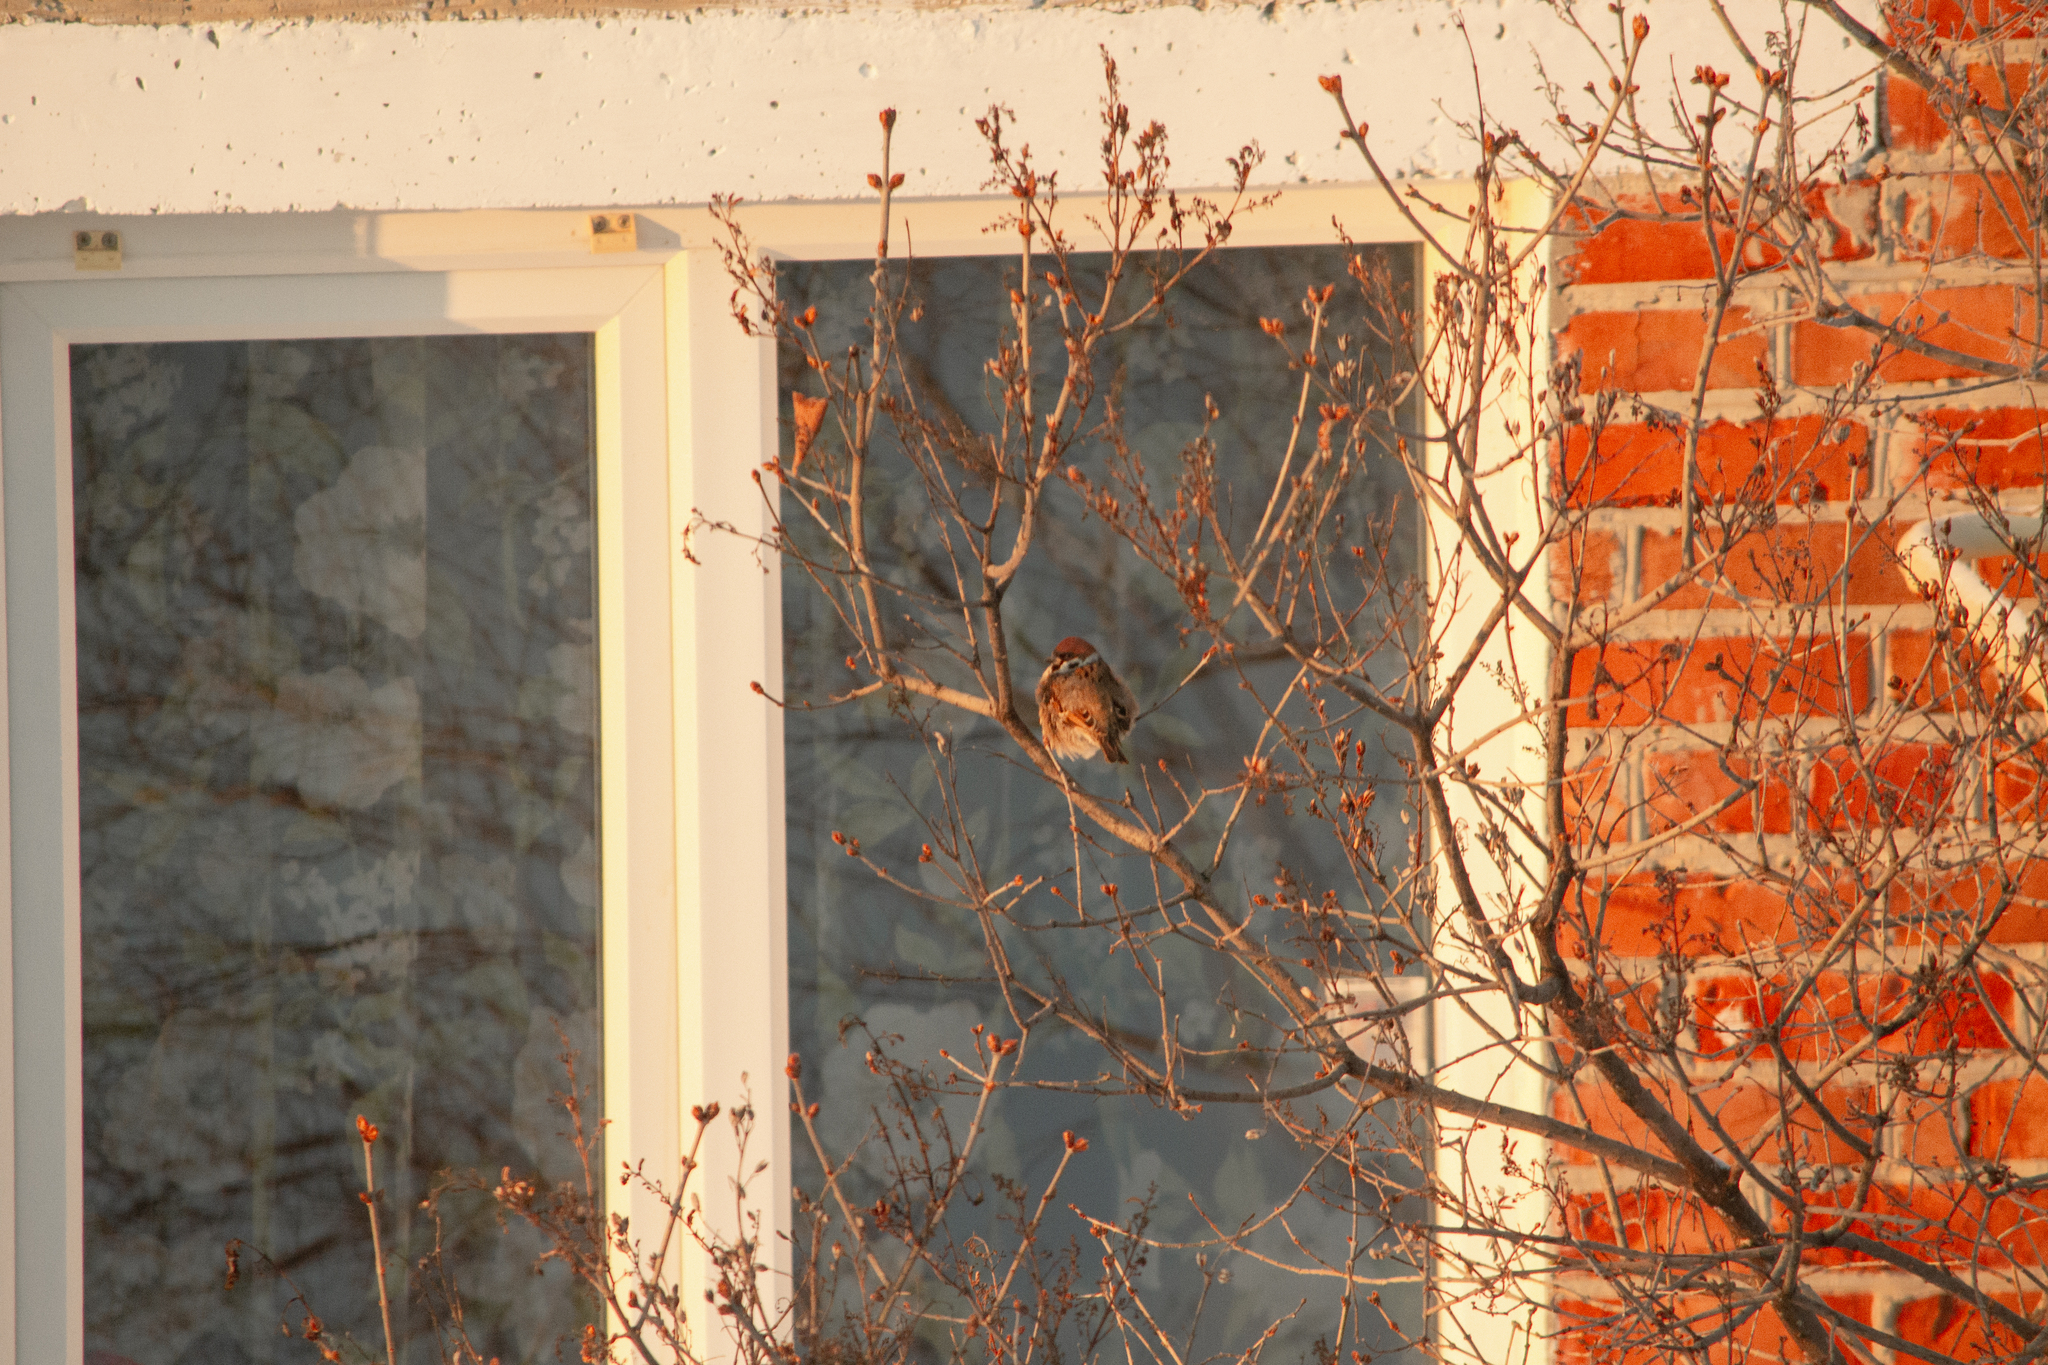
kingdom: Animalia
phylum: Chordata
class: Aves
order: Passeriformes
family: Passeridae
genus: Passer
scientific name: Passer montanus
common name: Eurasian tree sparrow
